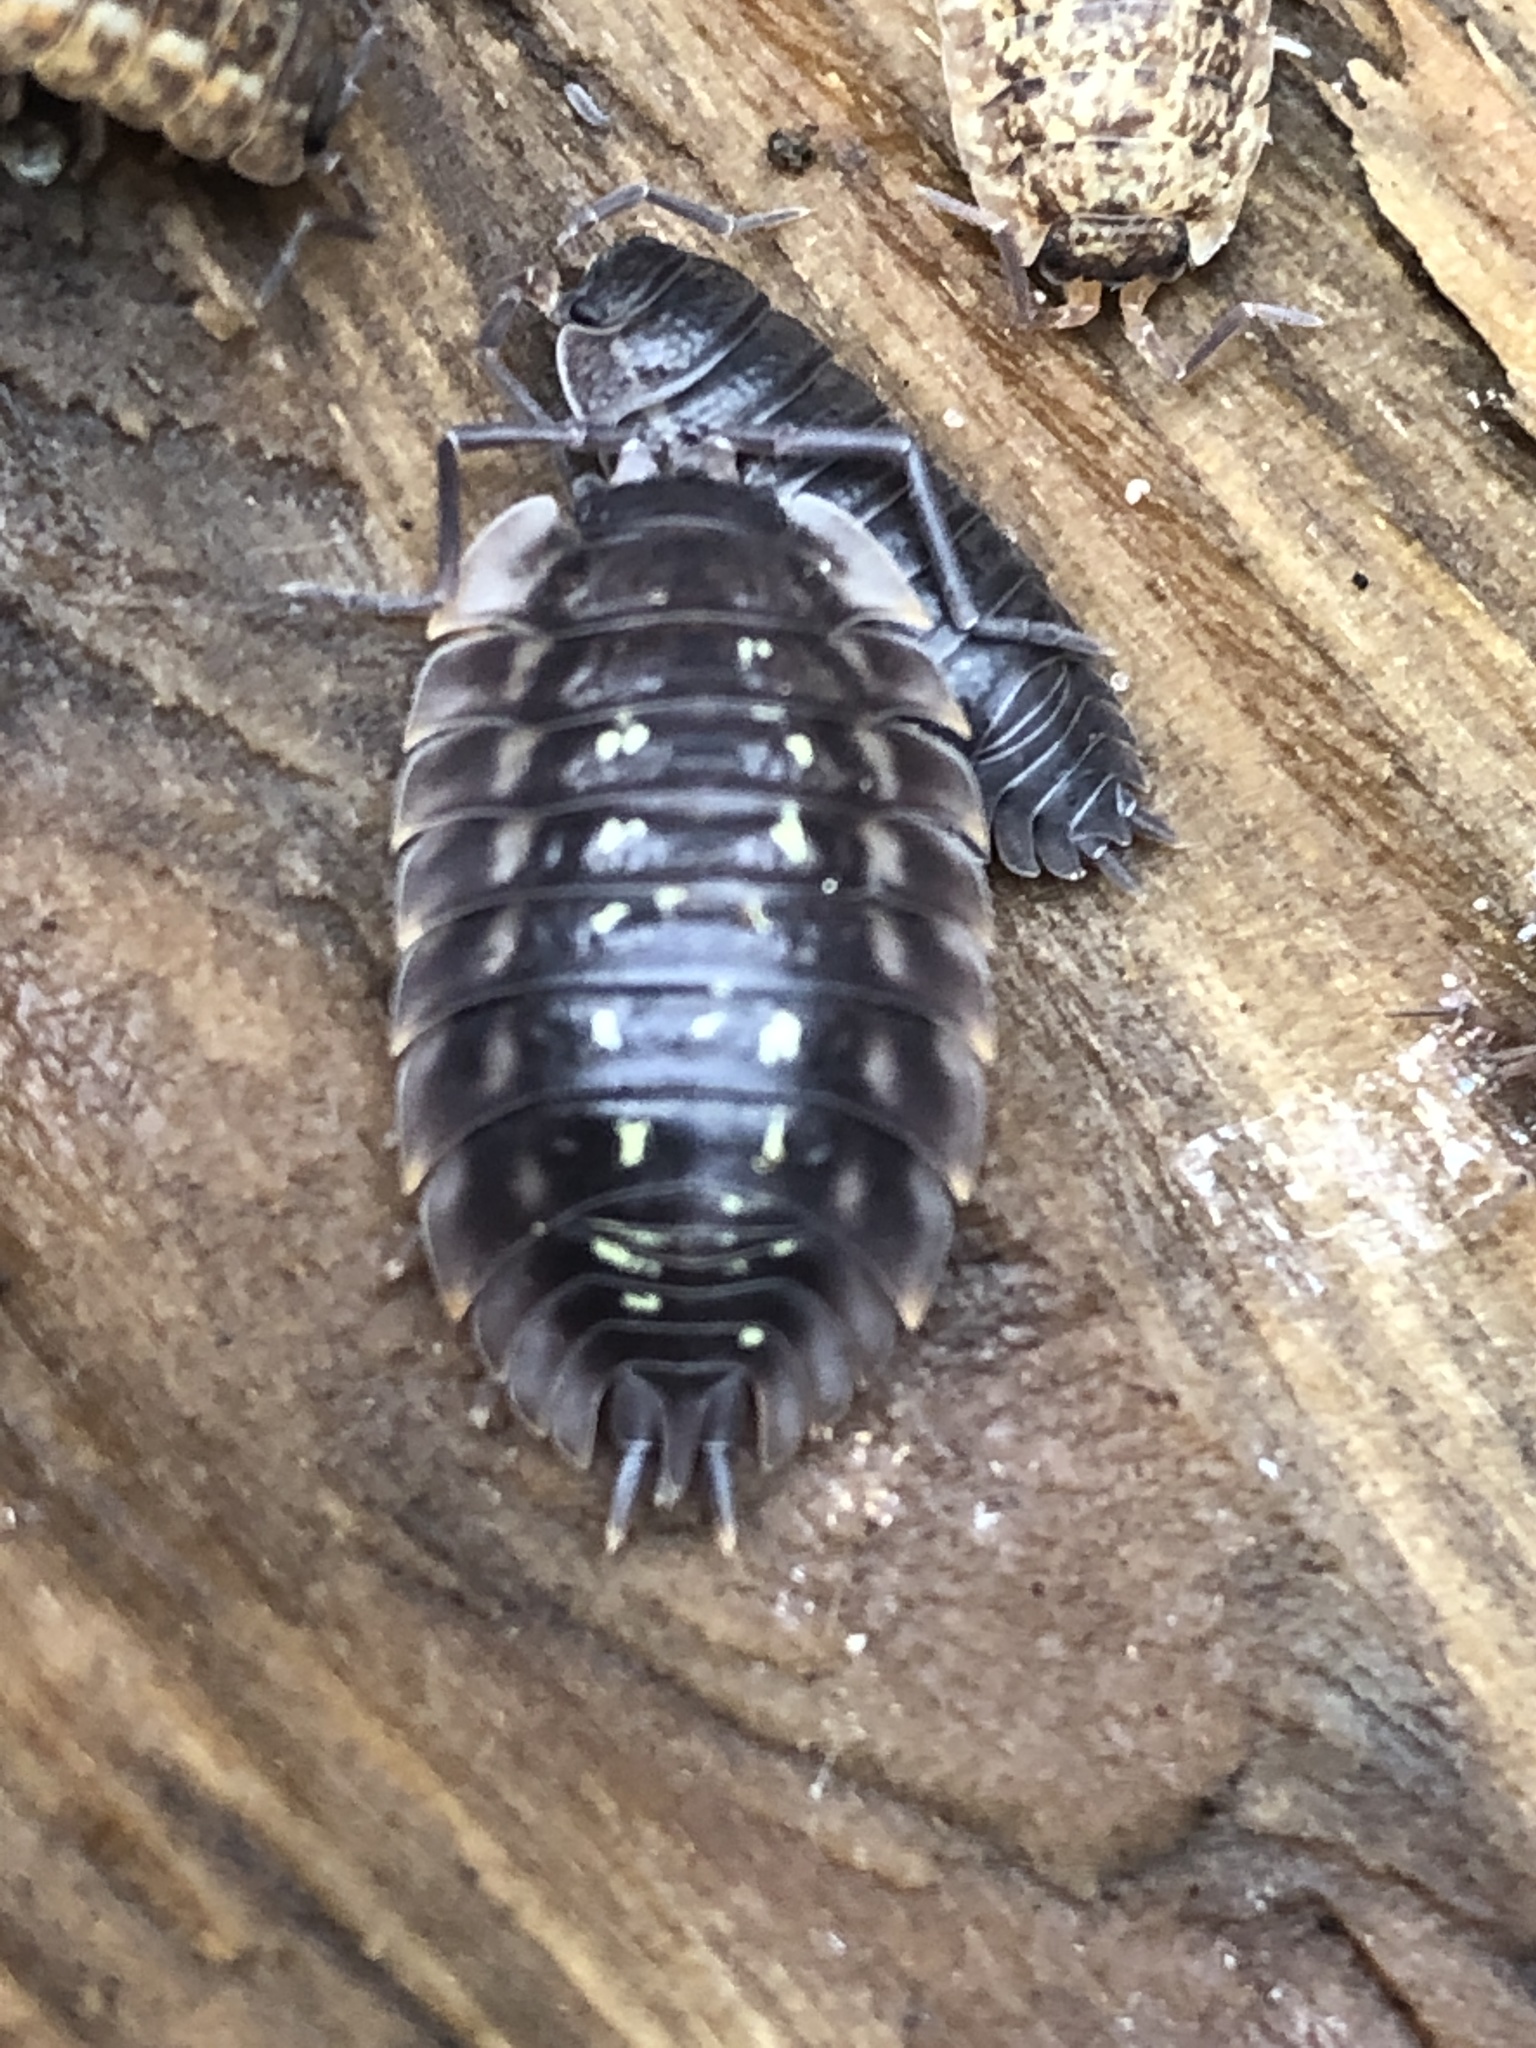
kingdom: Animalia
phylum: Arthropoda
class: Malacostraca
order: Isopoda
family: Oniscidae
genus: Oniscus
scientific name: Oniscus asellus
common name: Common shiny woodlouse
